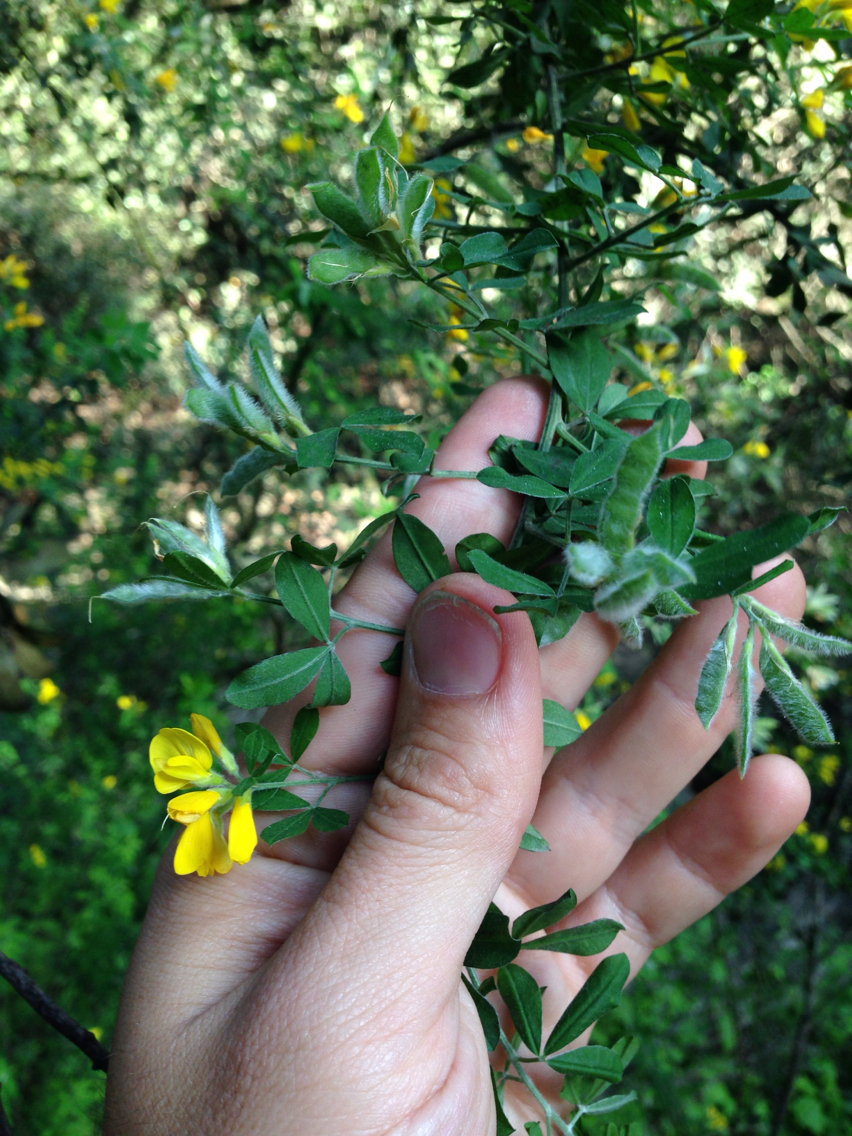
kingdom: Plantae
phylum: Tracheophyta
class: Magnoliopsida
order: Fabales
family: Fabaceae
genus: Genista
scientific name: Genista monspessulana
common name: Montpellier broom
